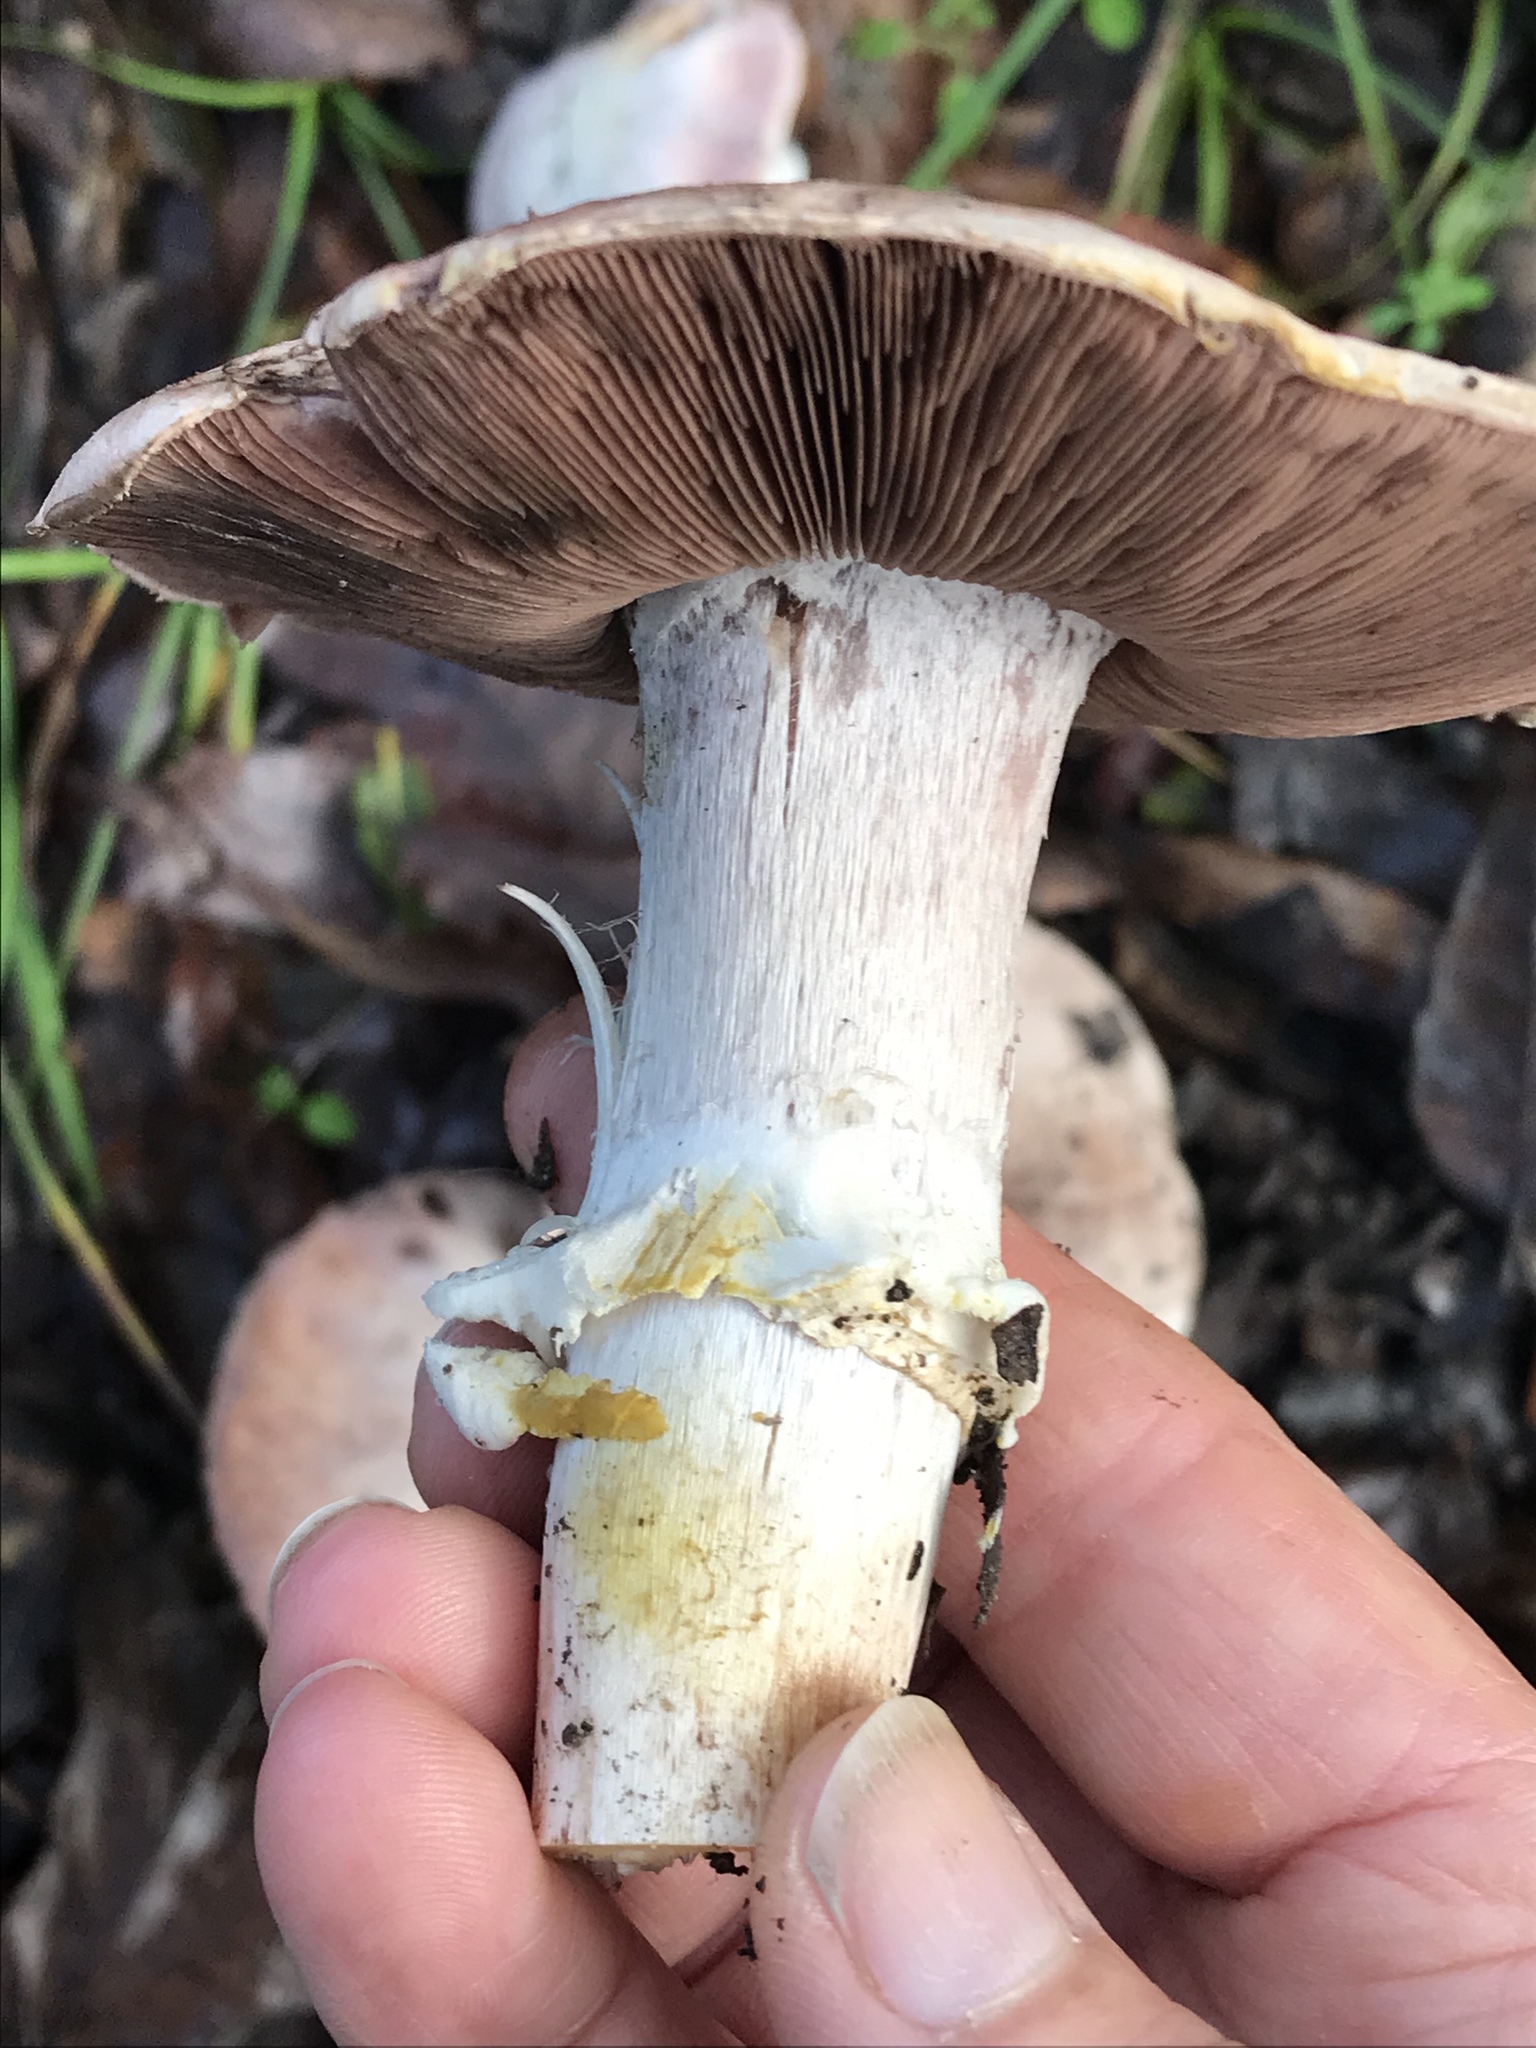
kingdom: Fungi
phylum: Basidiomycota
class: Agaricomycetes
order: Agaricales
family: Agaricaceae
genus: Agaricus
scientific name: Agaricus xanthodermus
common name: Yellow stainer
